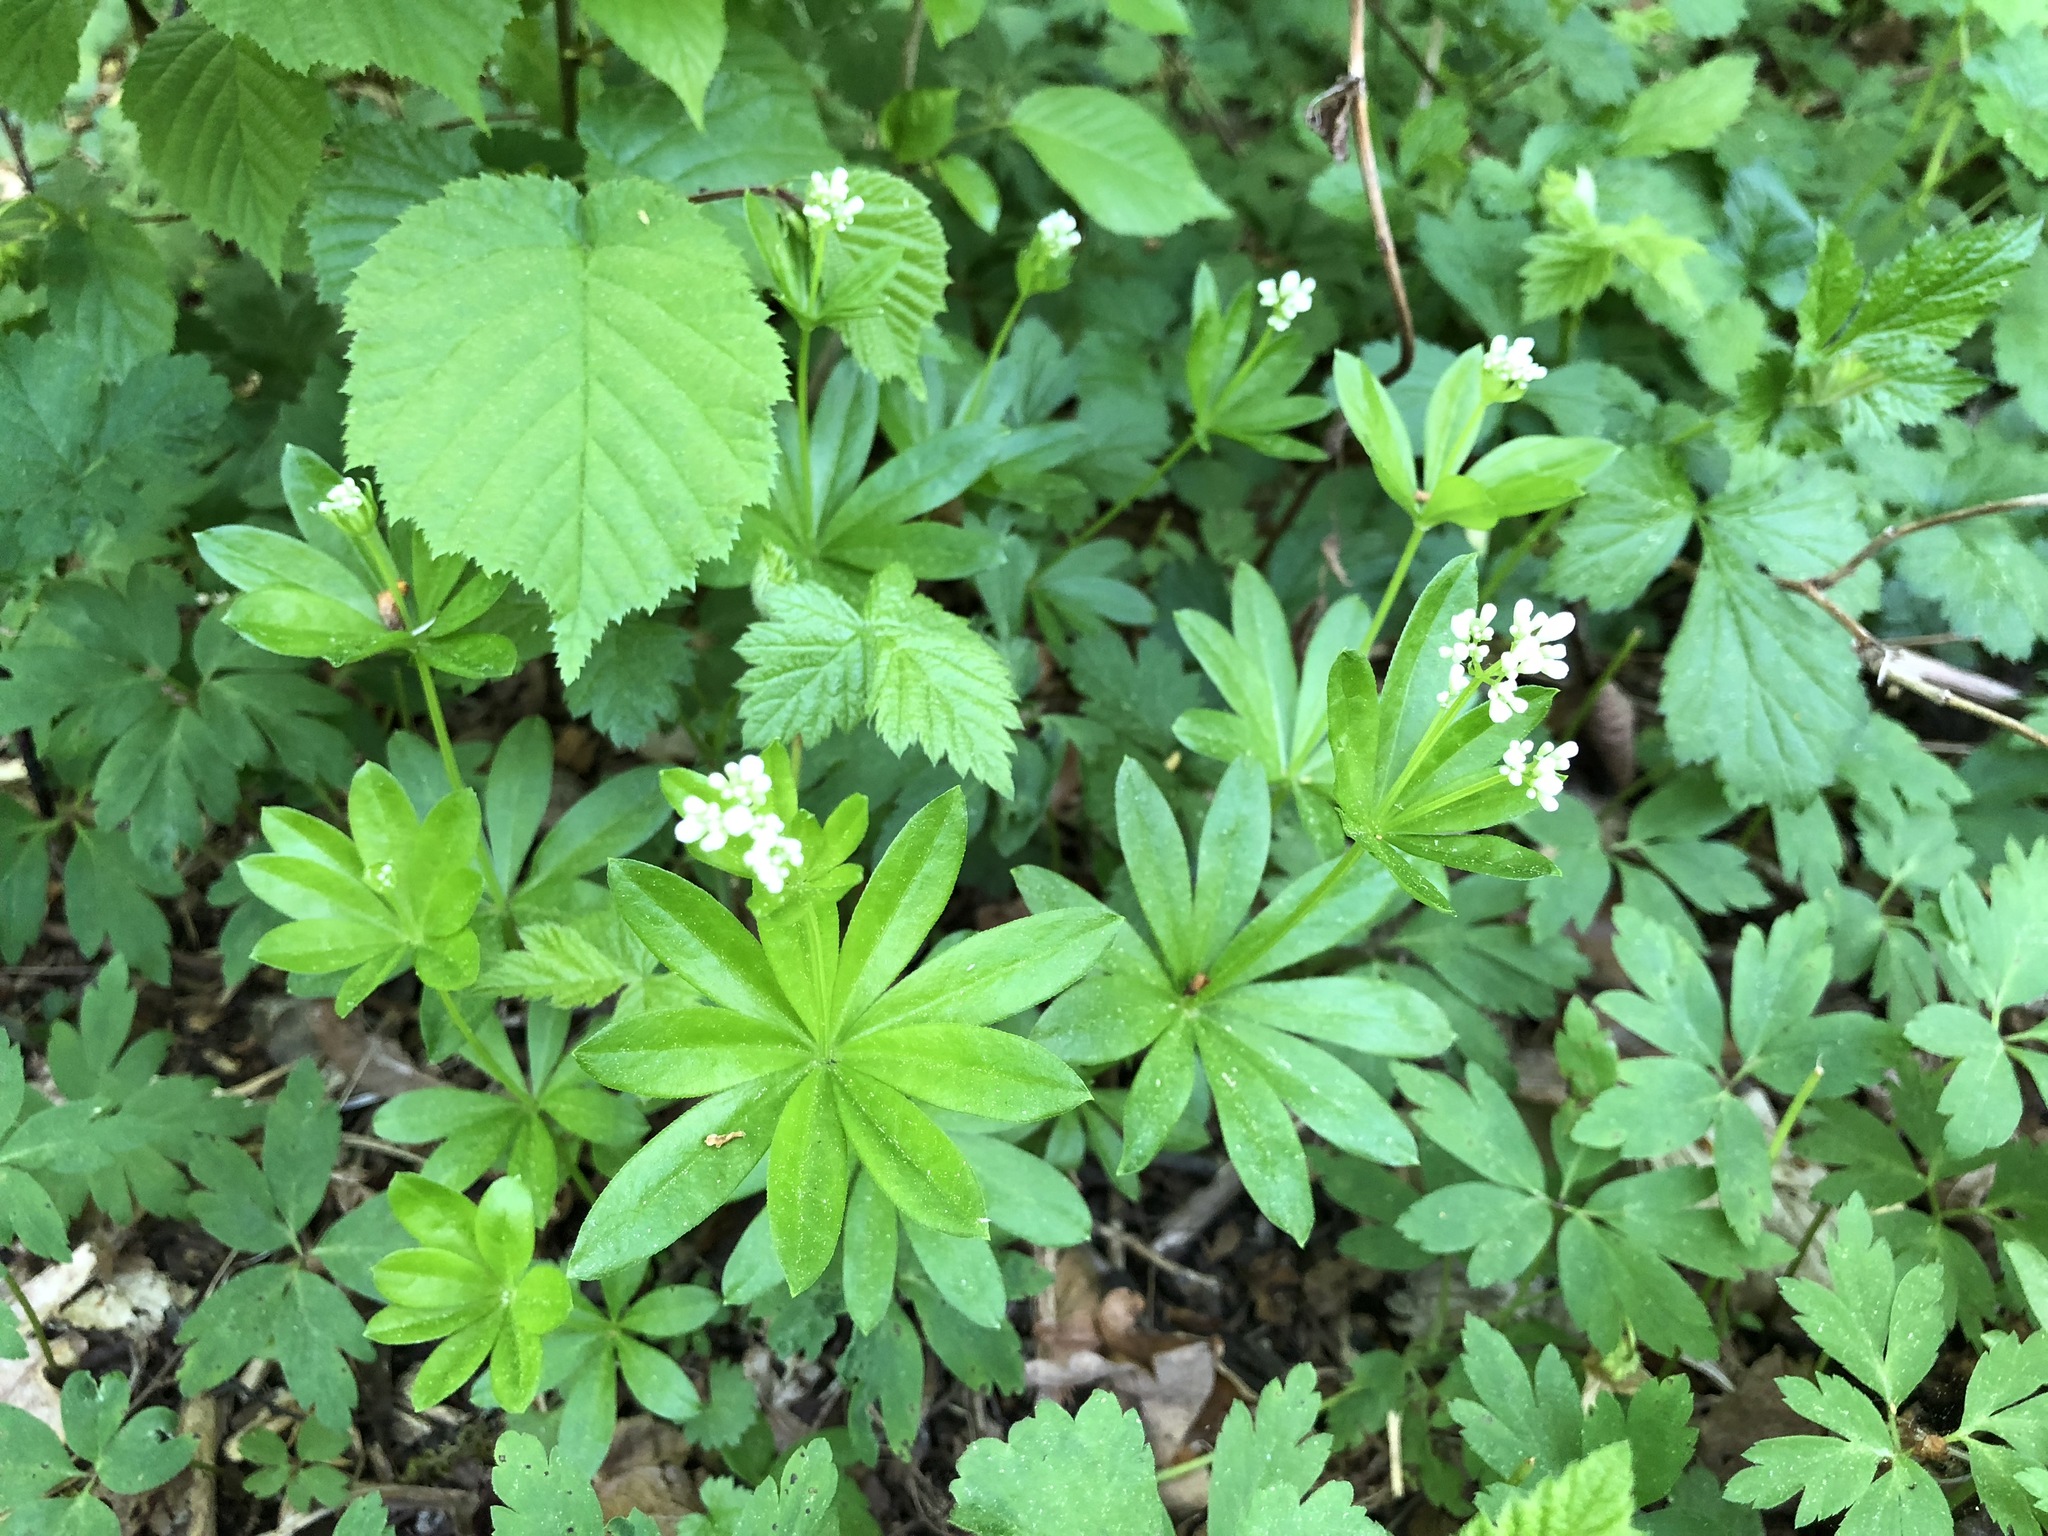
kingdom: Plantae
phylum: Tracheophyta
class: Magnoliopsida
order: Gentianales
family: Rubiaceae
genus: Galium
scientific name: Galium odoratum
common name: Sweet woodruff
